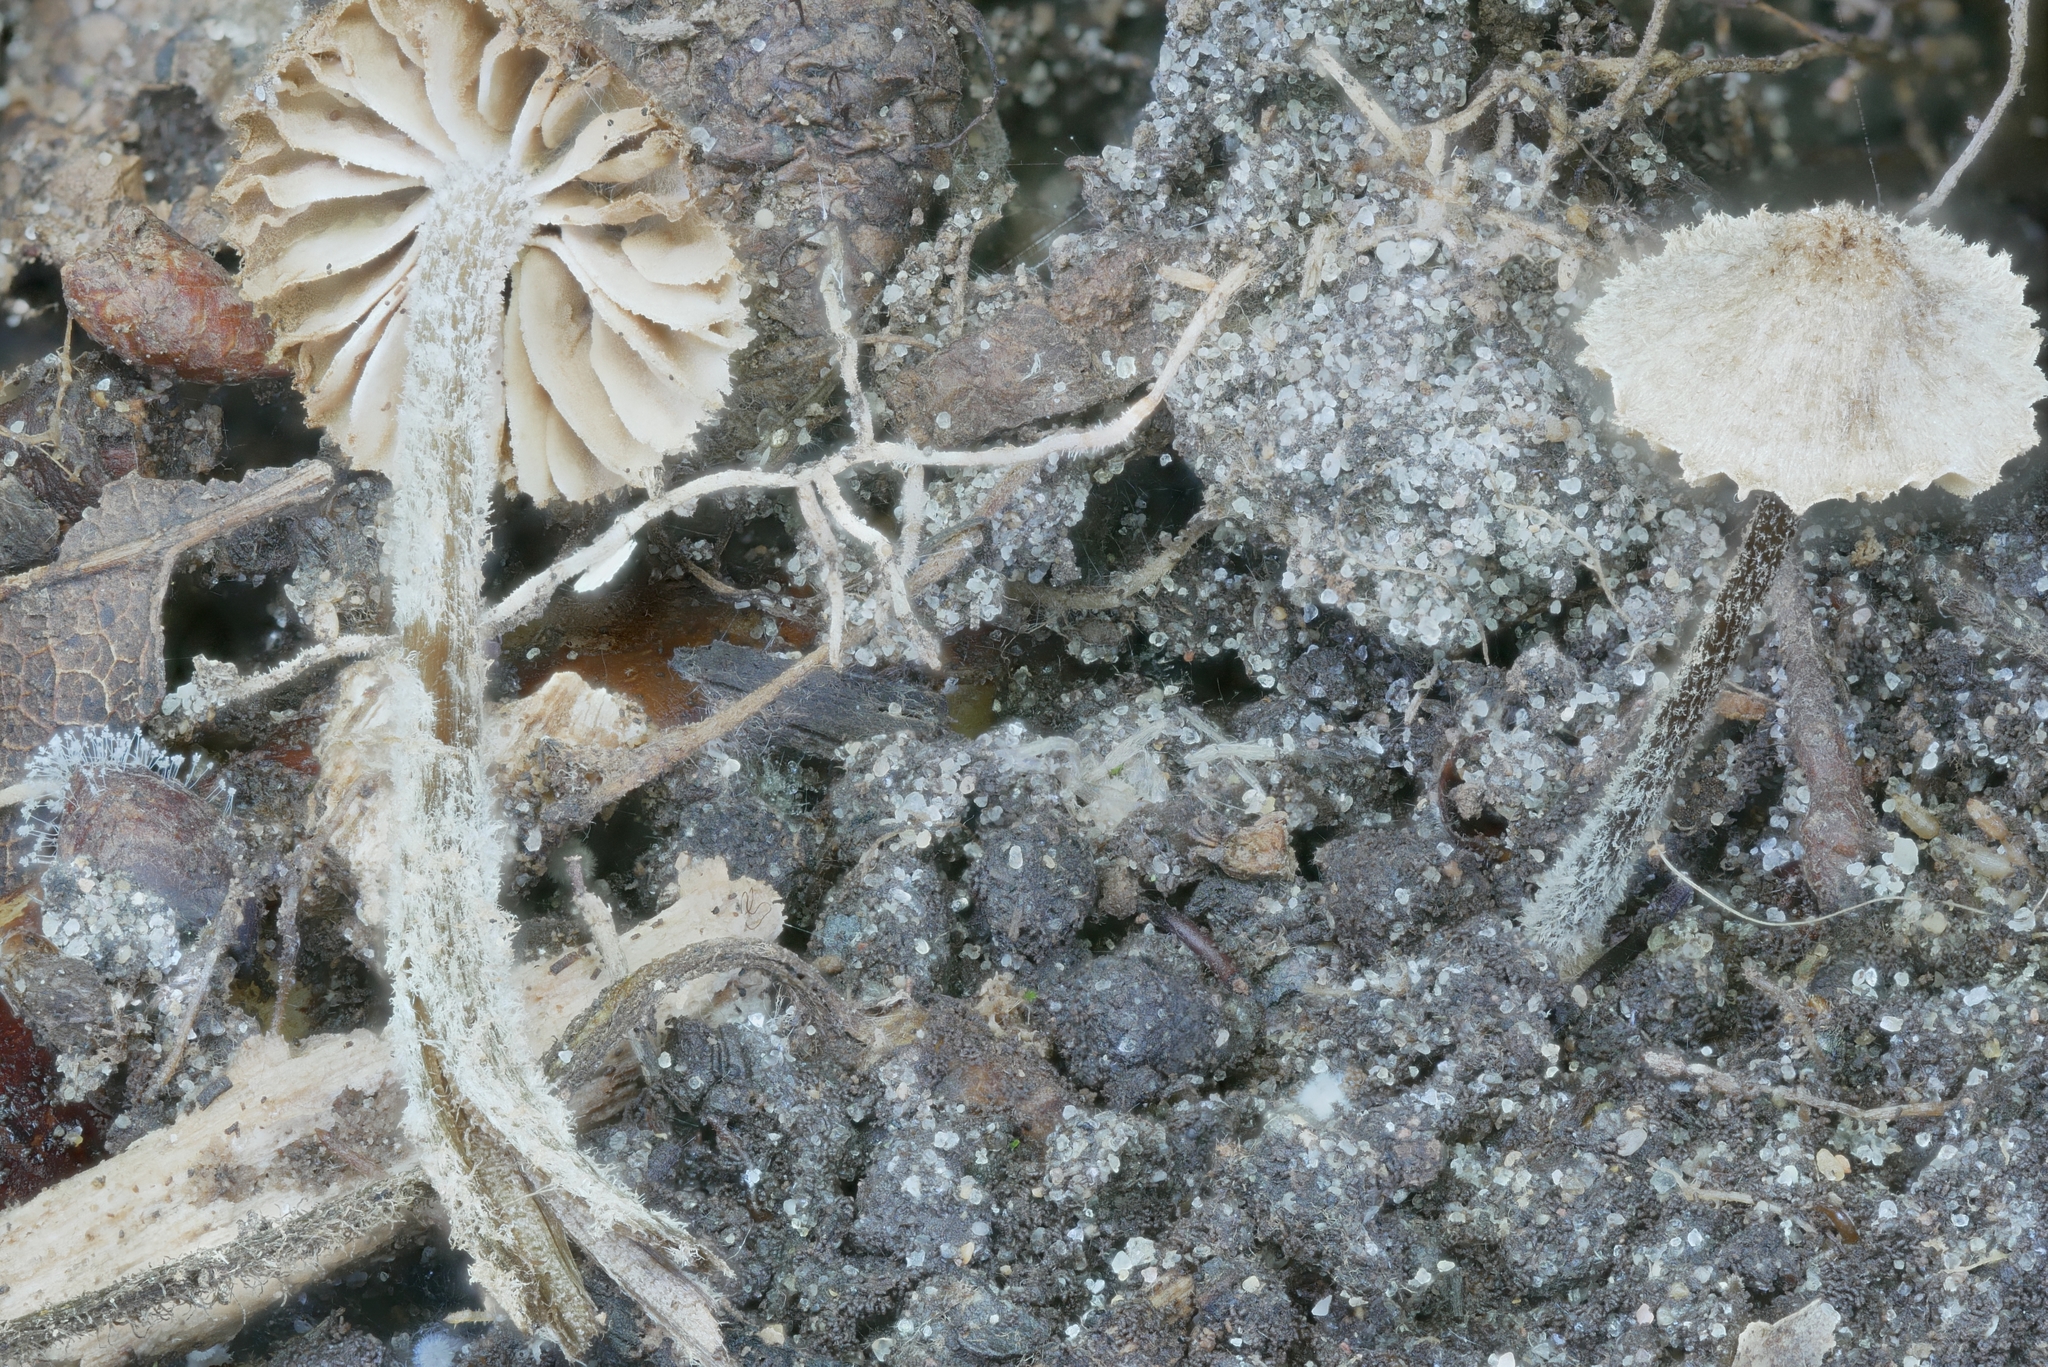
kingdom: Fungi
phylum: Basidiomycota
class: Agaricomycetes
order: Agaricales
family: Entolomataceae
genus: Entoloma
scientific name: Entoloma dysthales
